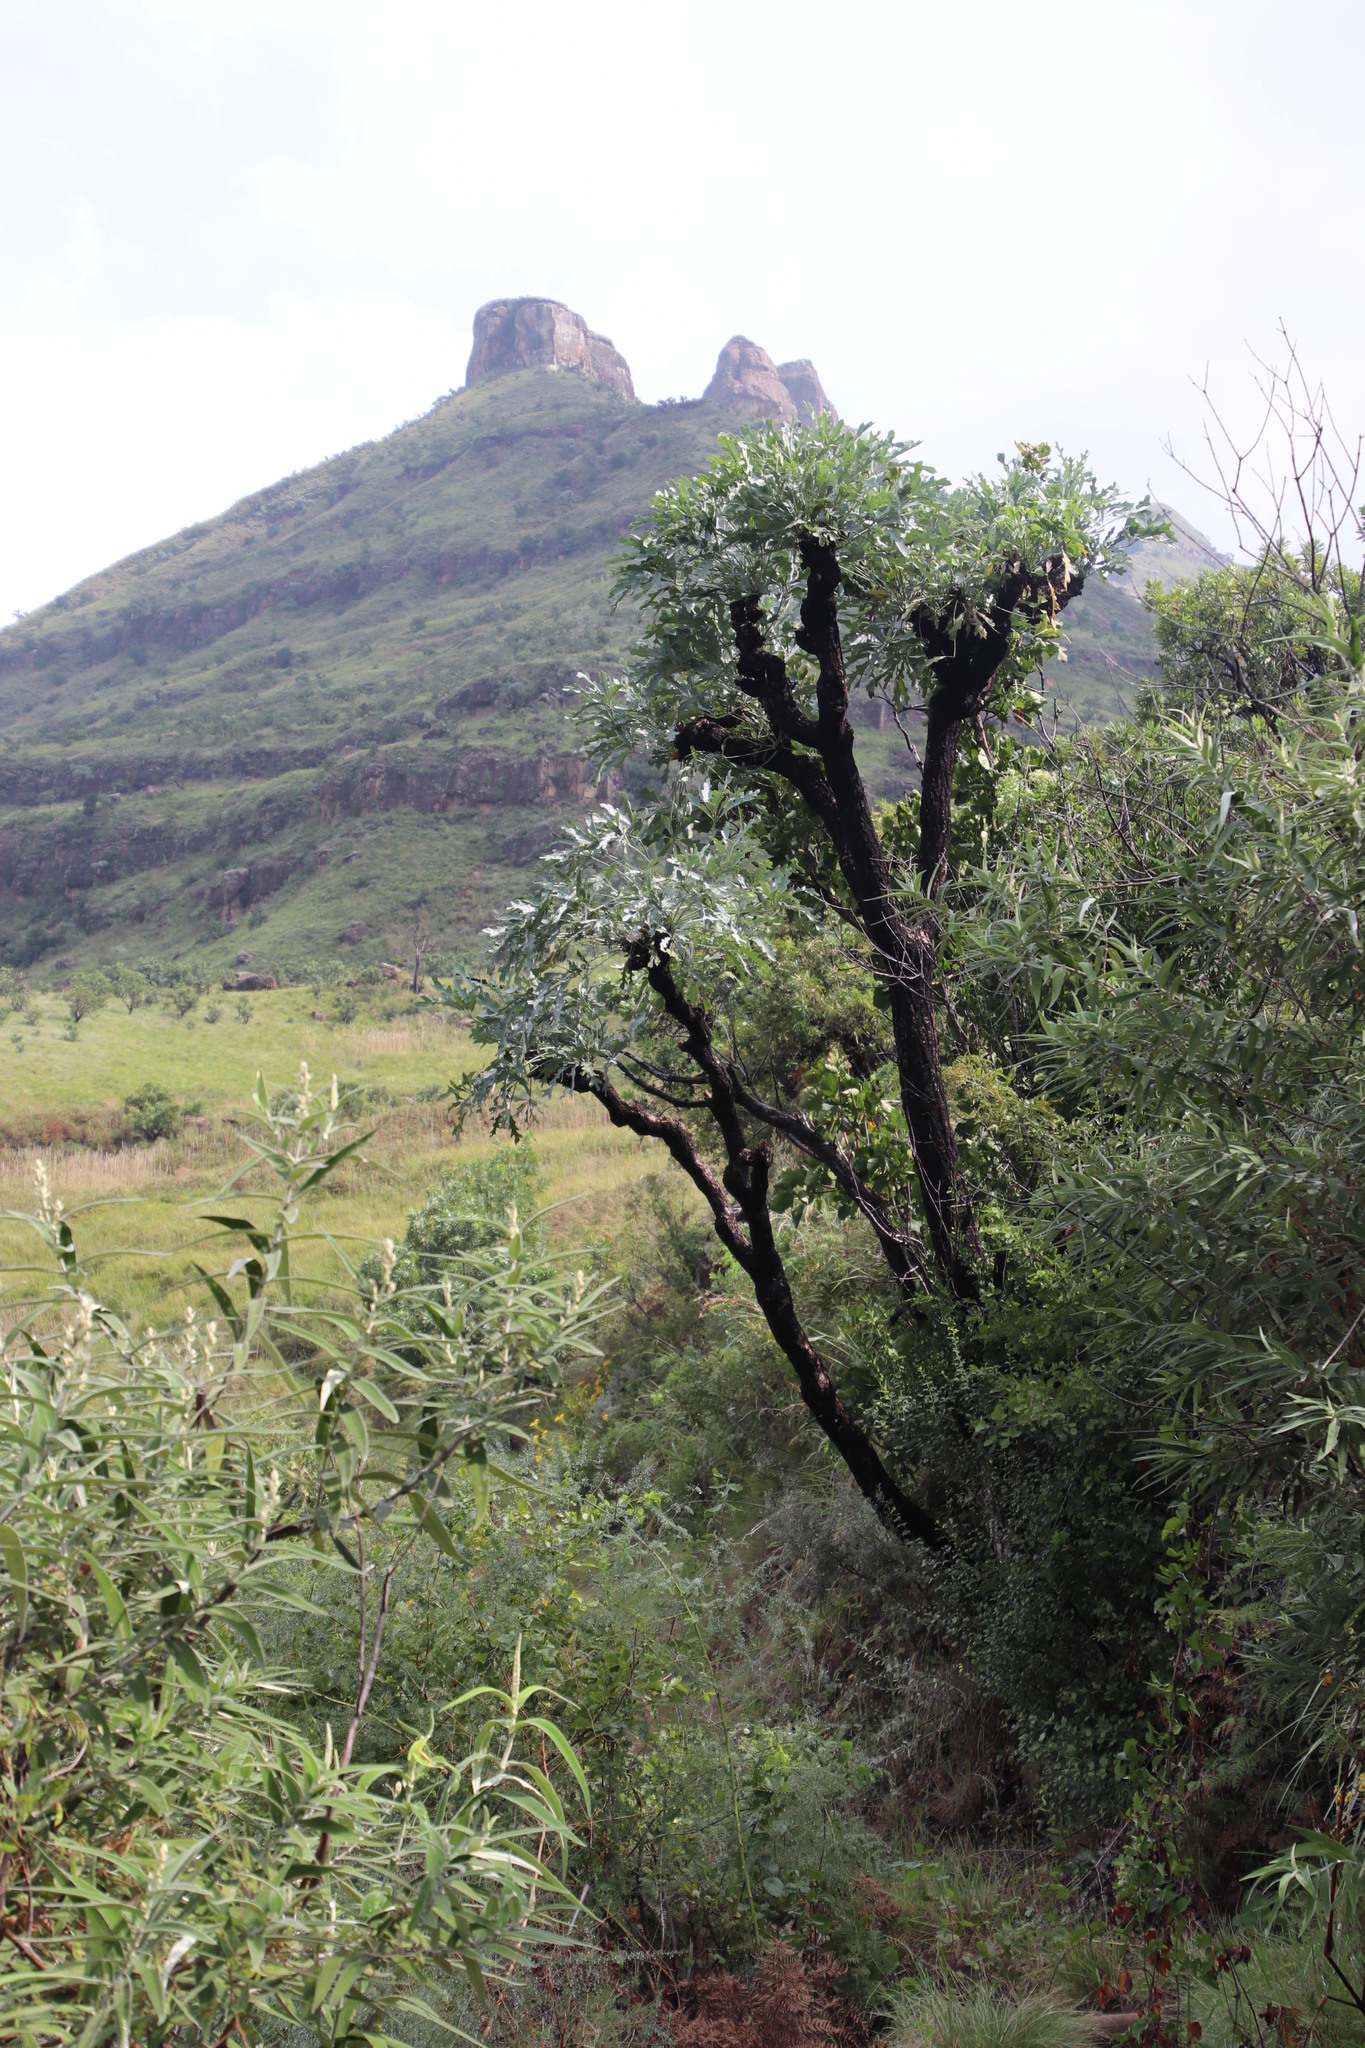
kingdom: Plantae
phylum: Tracheophyta
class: Magnoliopsida
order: Apiales
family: Araliaceae
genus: Cussonia
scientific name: Cussonia paniculata
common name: Cabbagetree
